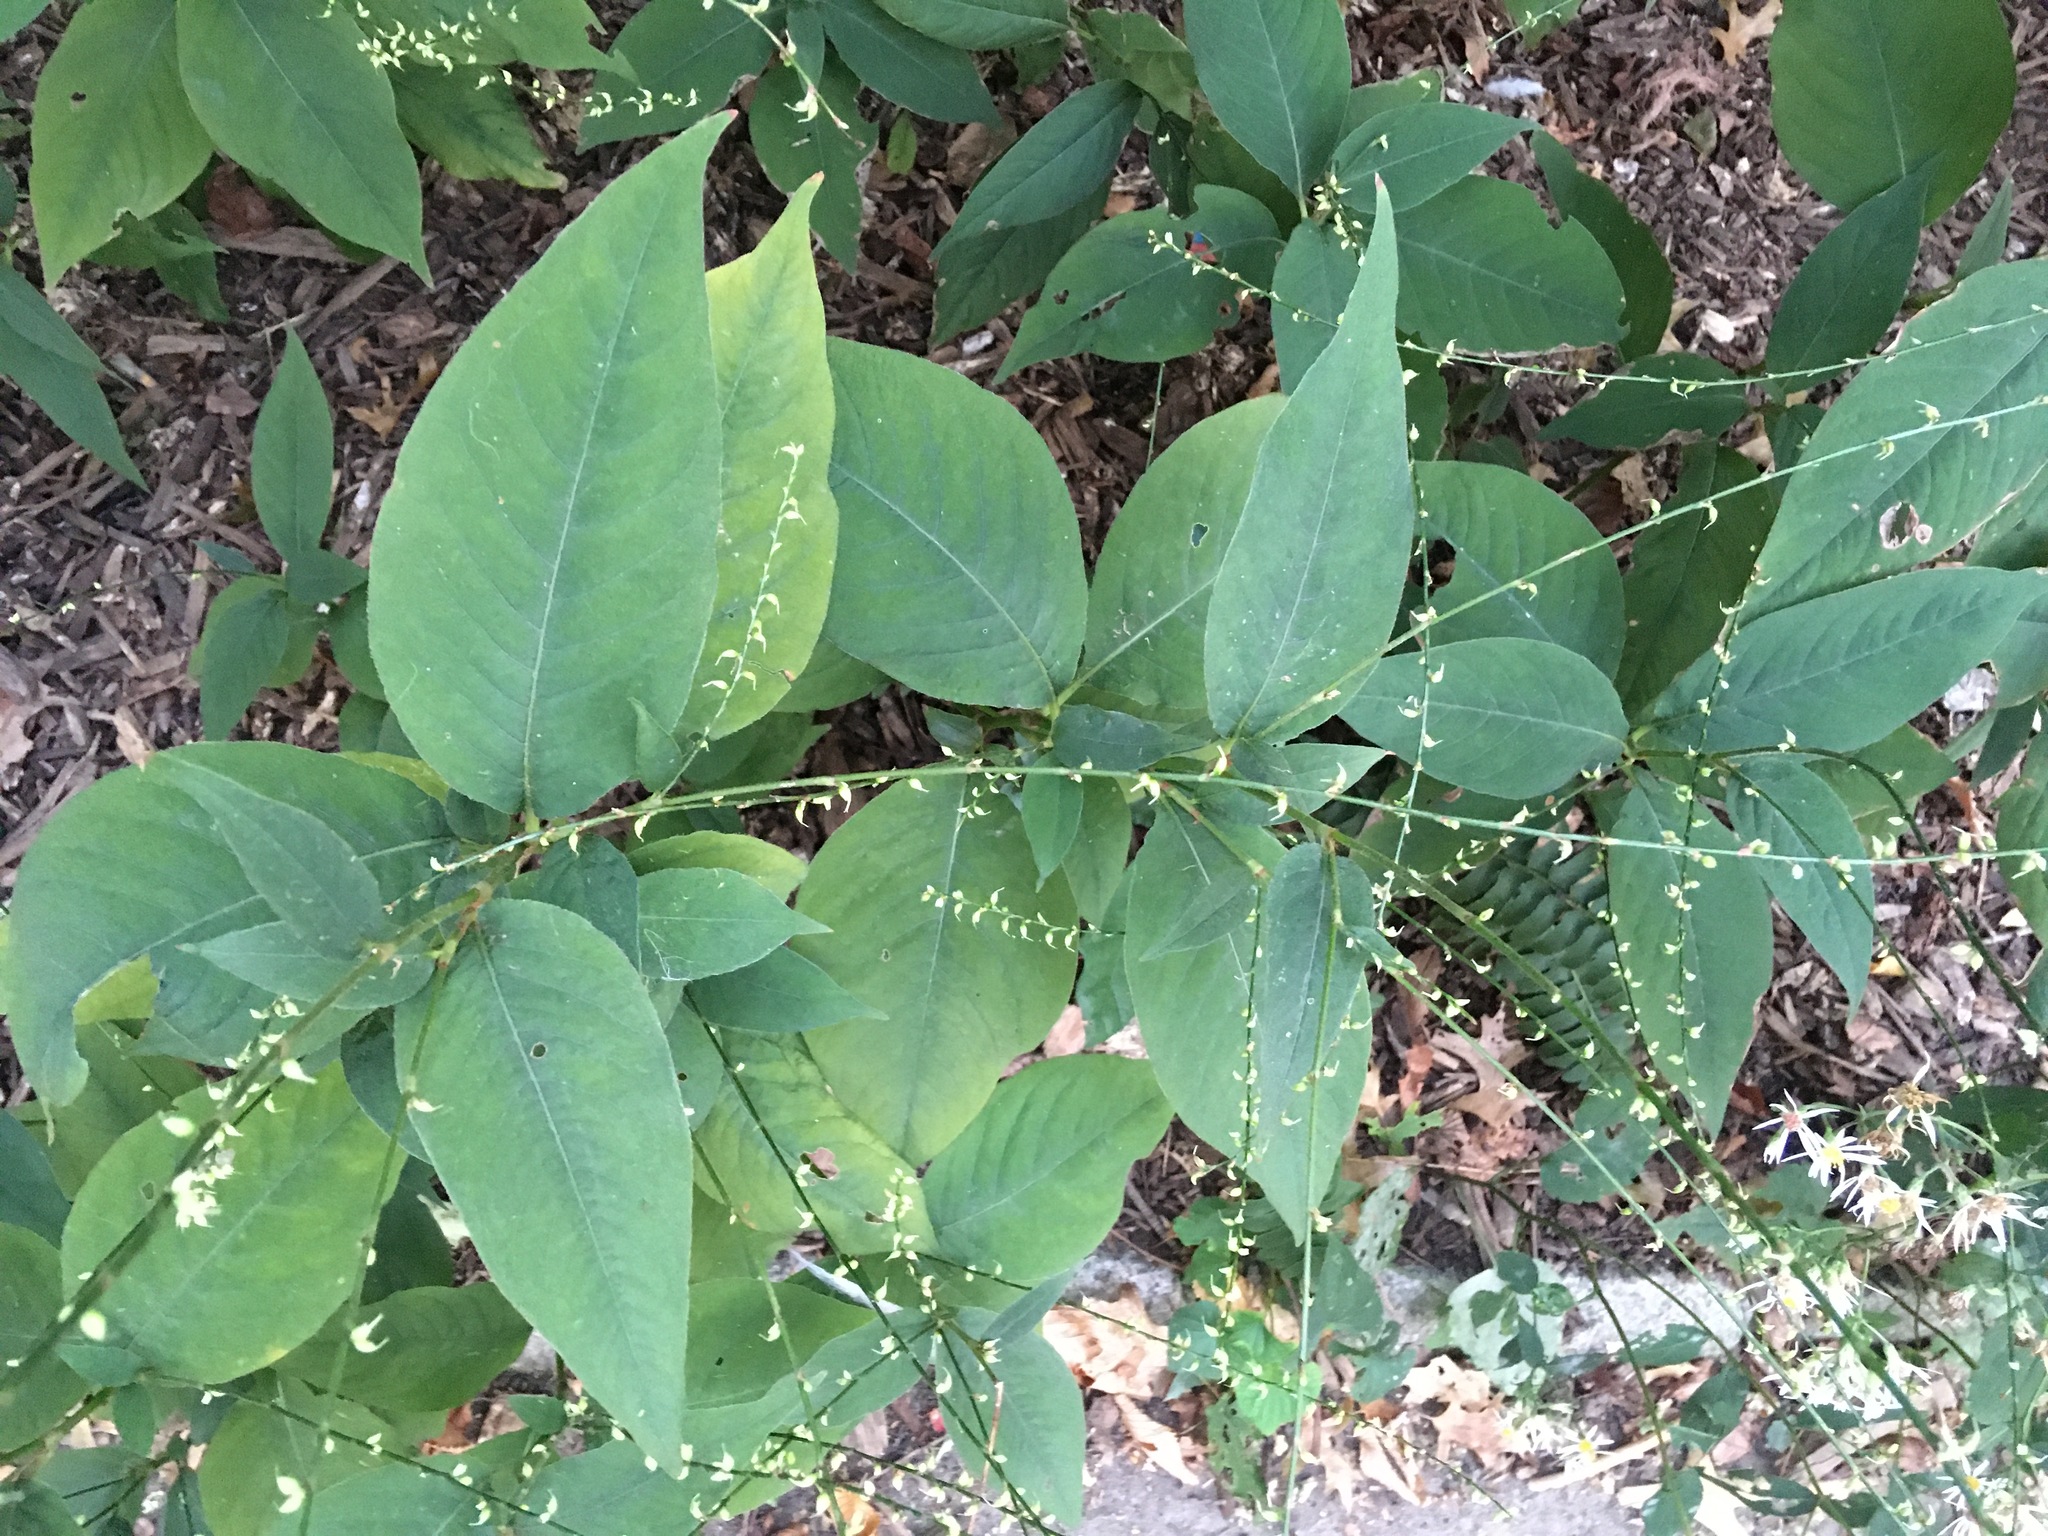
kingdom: Plantae
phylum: Tracheophyta
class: Magnoliopsida
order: Caryophyllales
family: Polygonaceae
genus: Persicaria
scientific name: Persicaria virginiana
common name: Jumpseed
